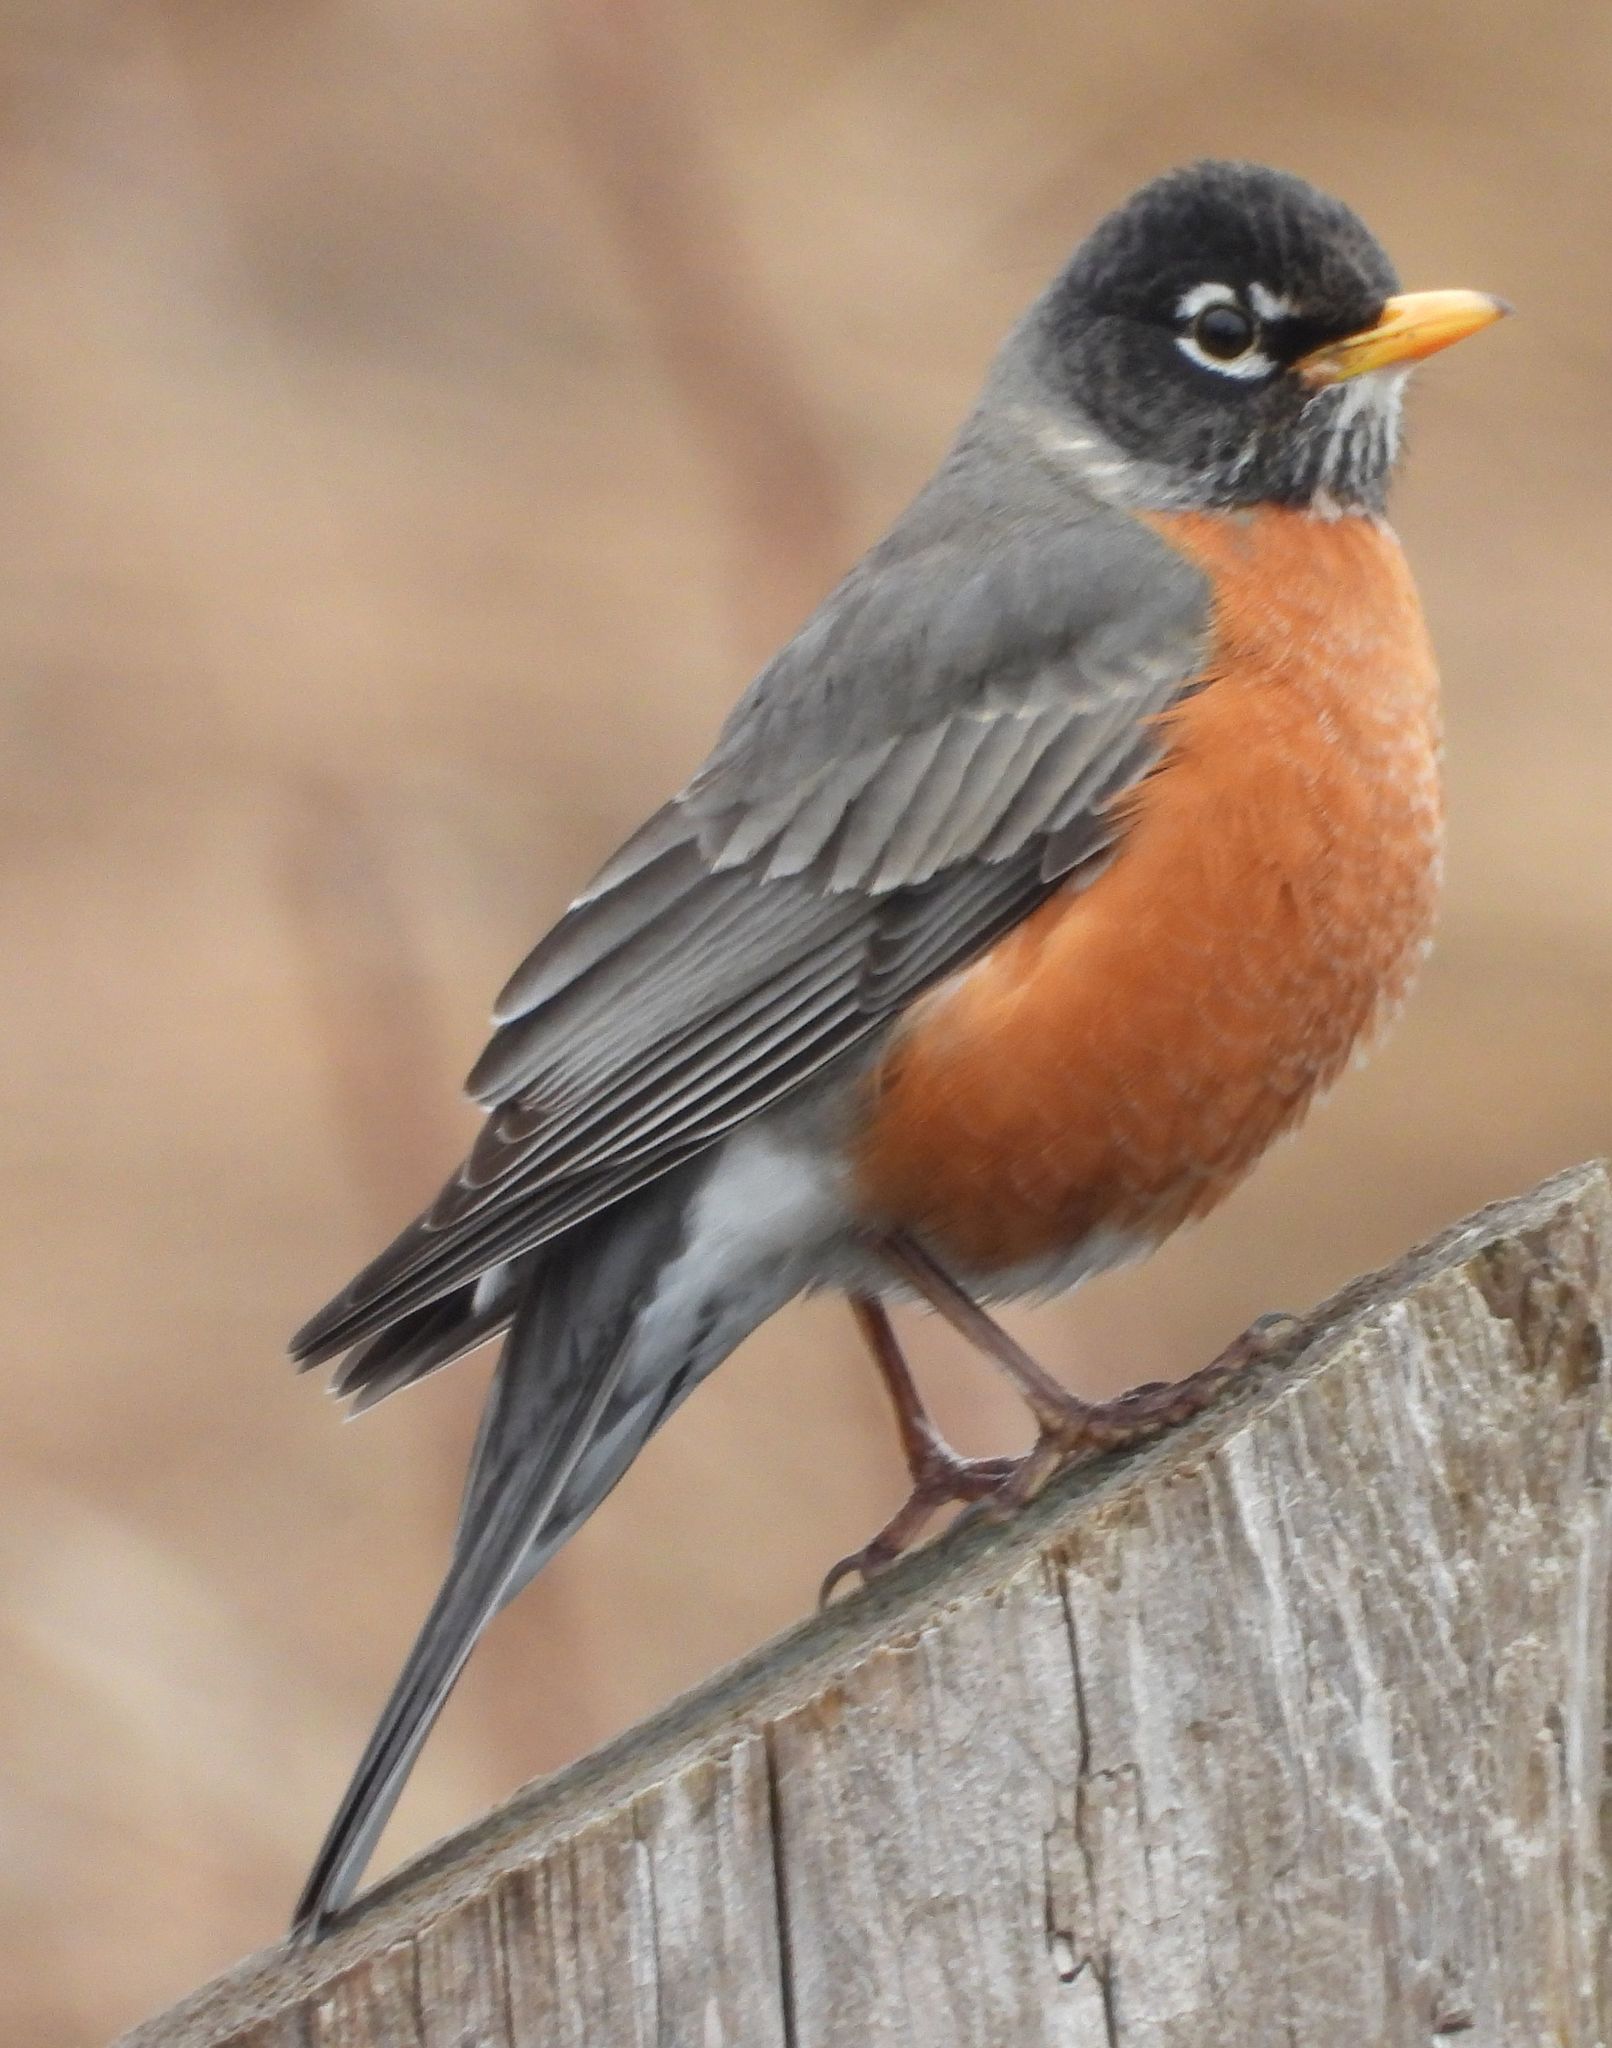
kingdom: Animalia
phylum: Chordata
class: Aves
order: Passeriformes
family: Turdidae
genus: Turdus
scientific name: Turdus migratorius
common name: American robin
